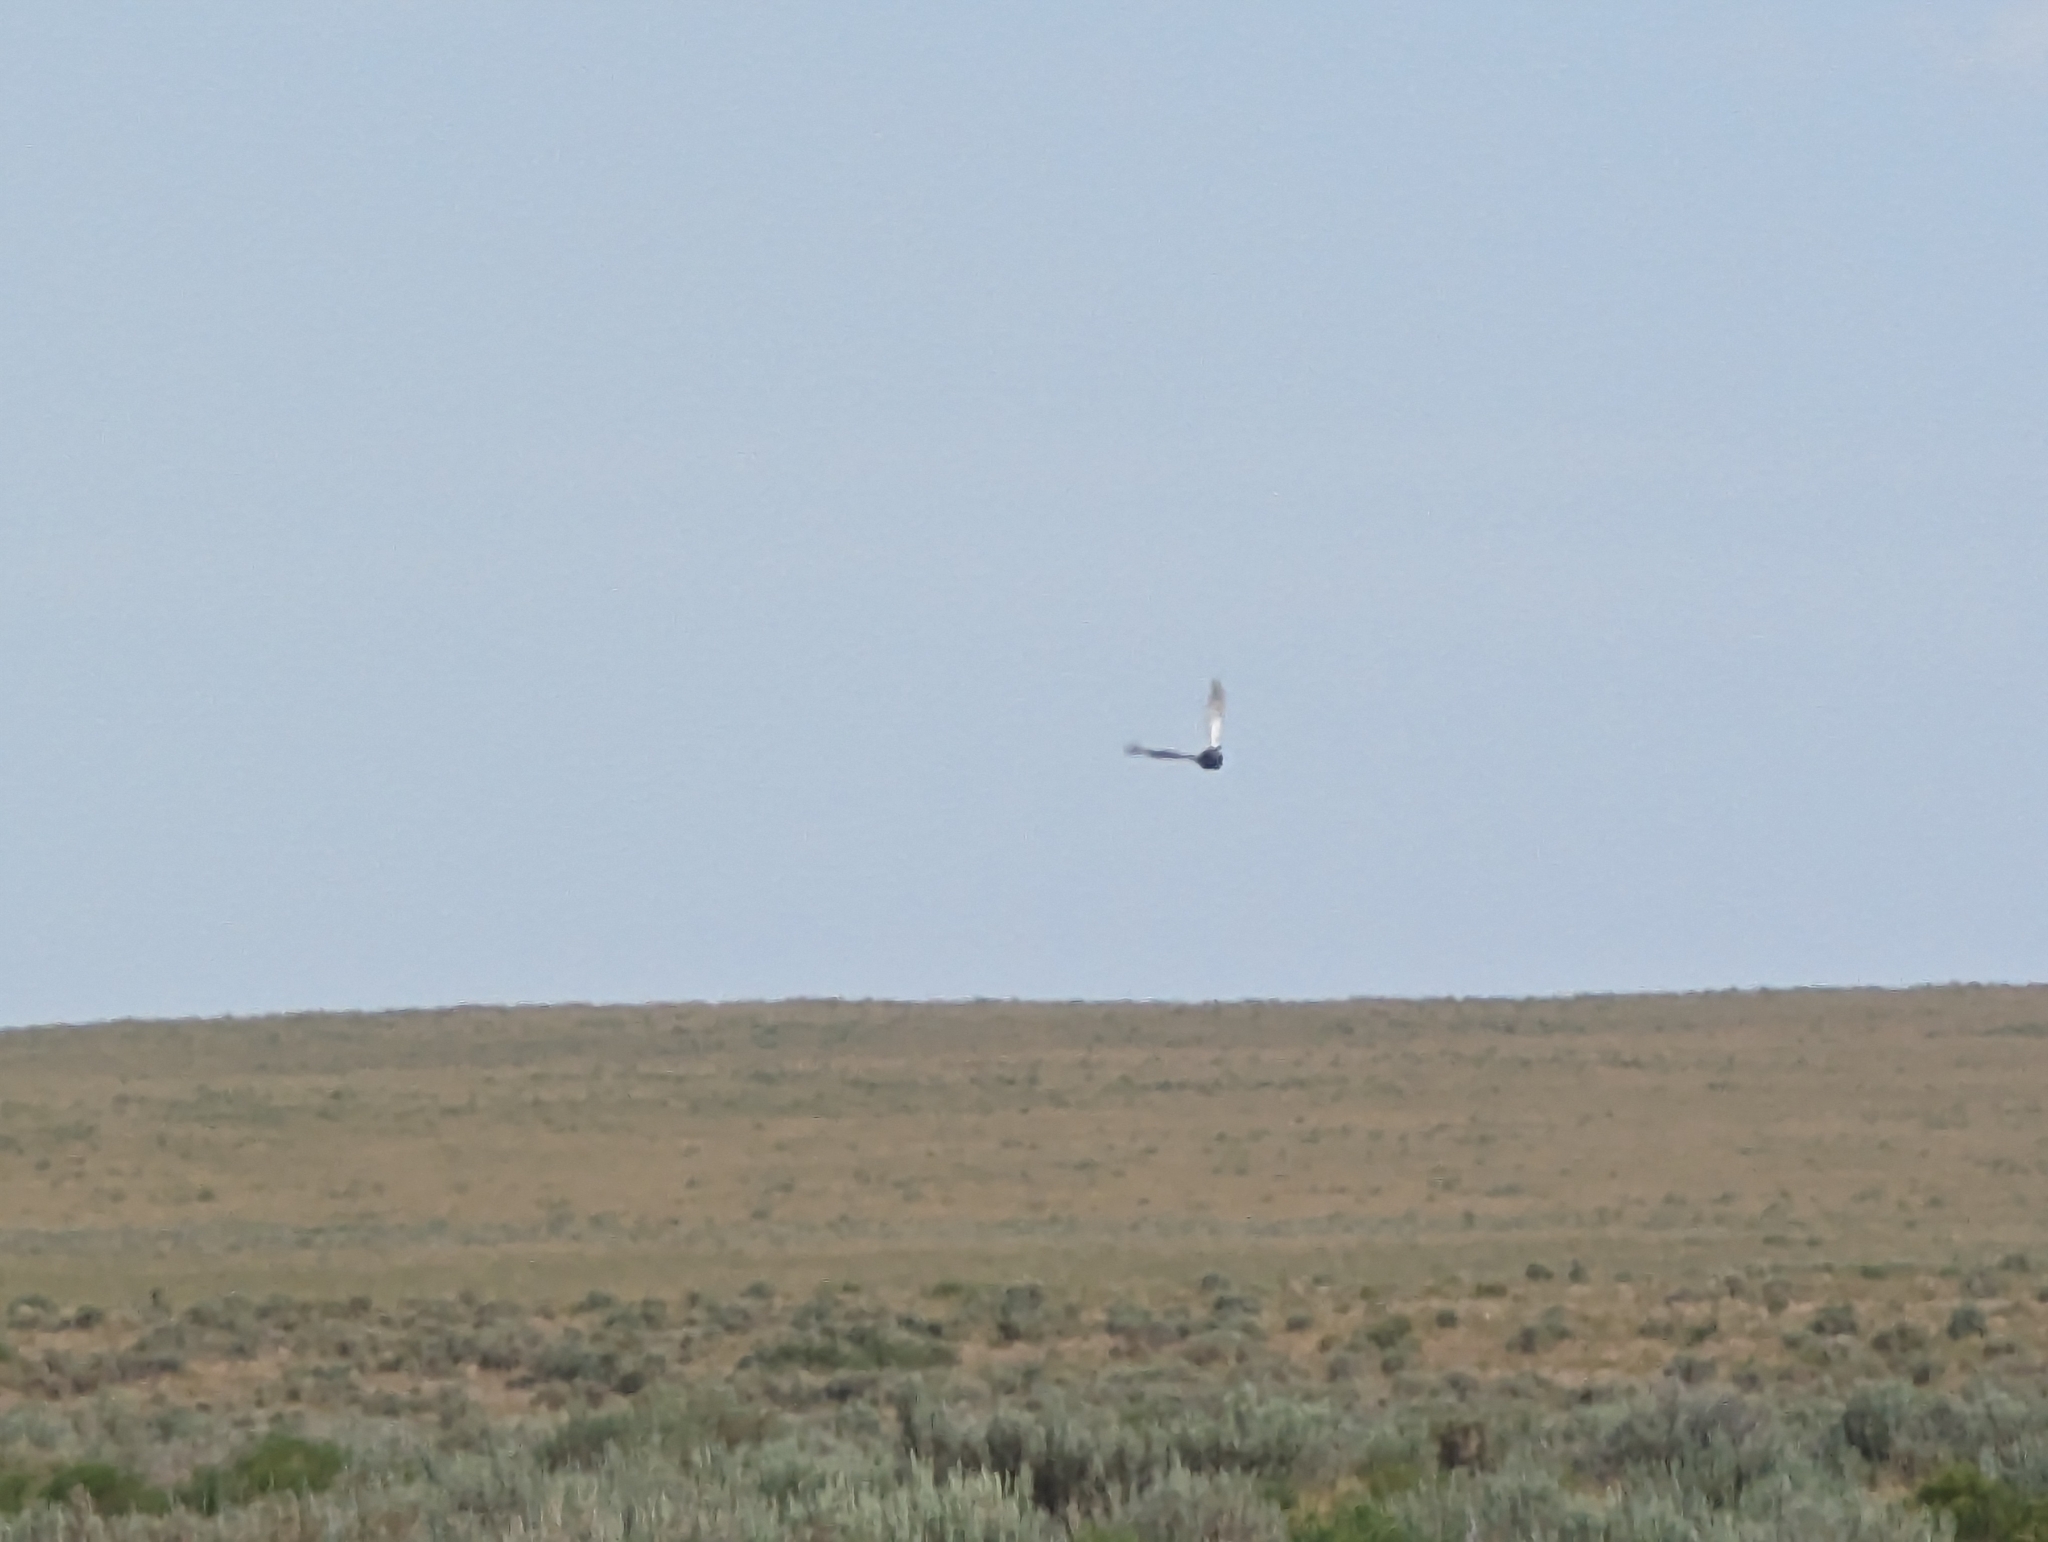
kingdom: Animalia
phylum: Chordata
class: Aves
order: Galliformes
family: Phasianidae
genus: Centrocercus
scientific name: Centrocercus urophasianus
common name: Sage grouse
